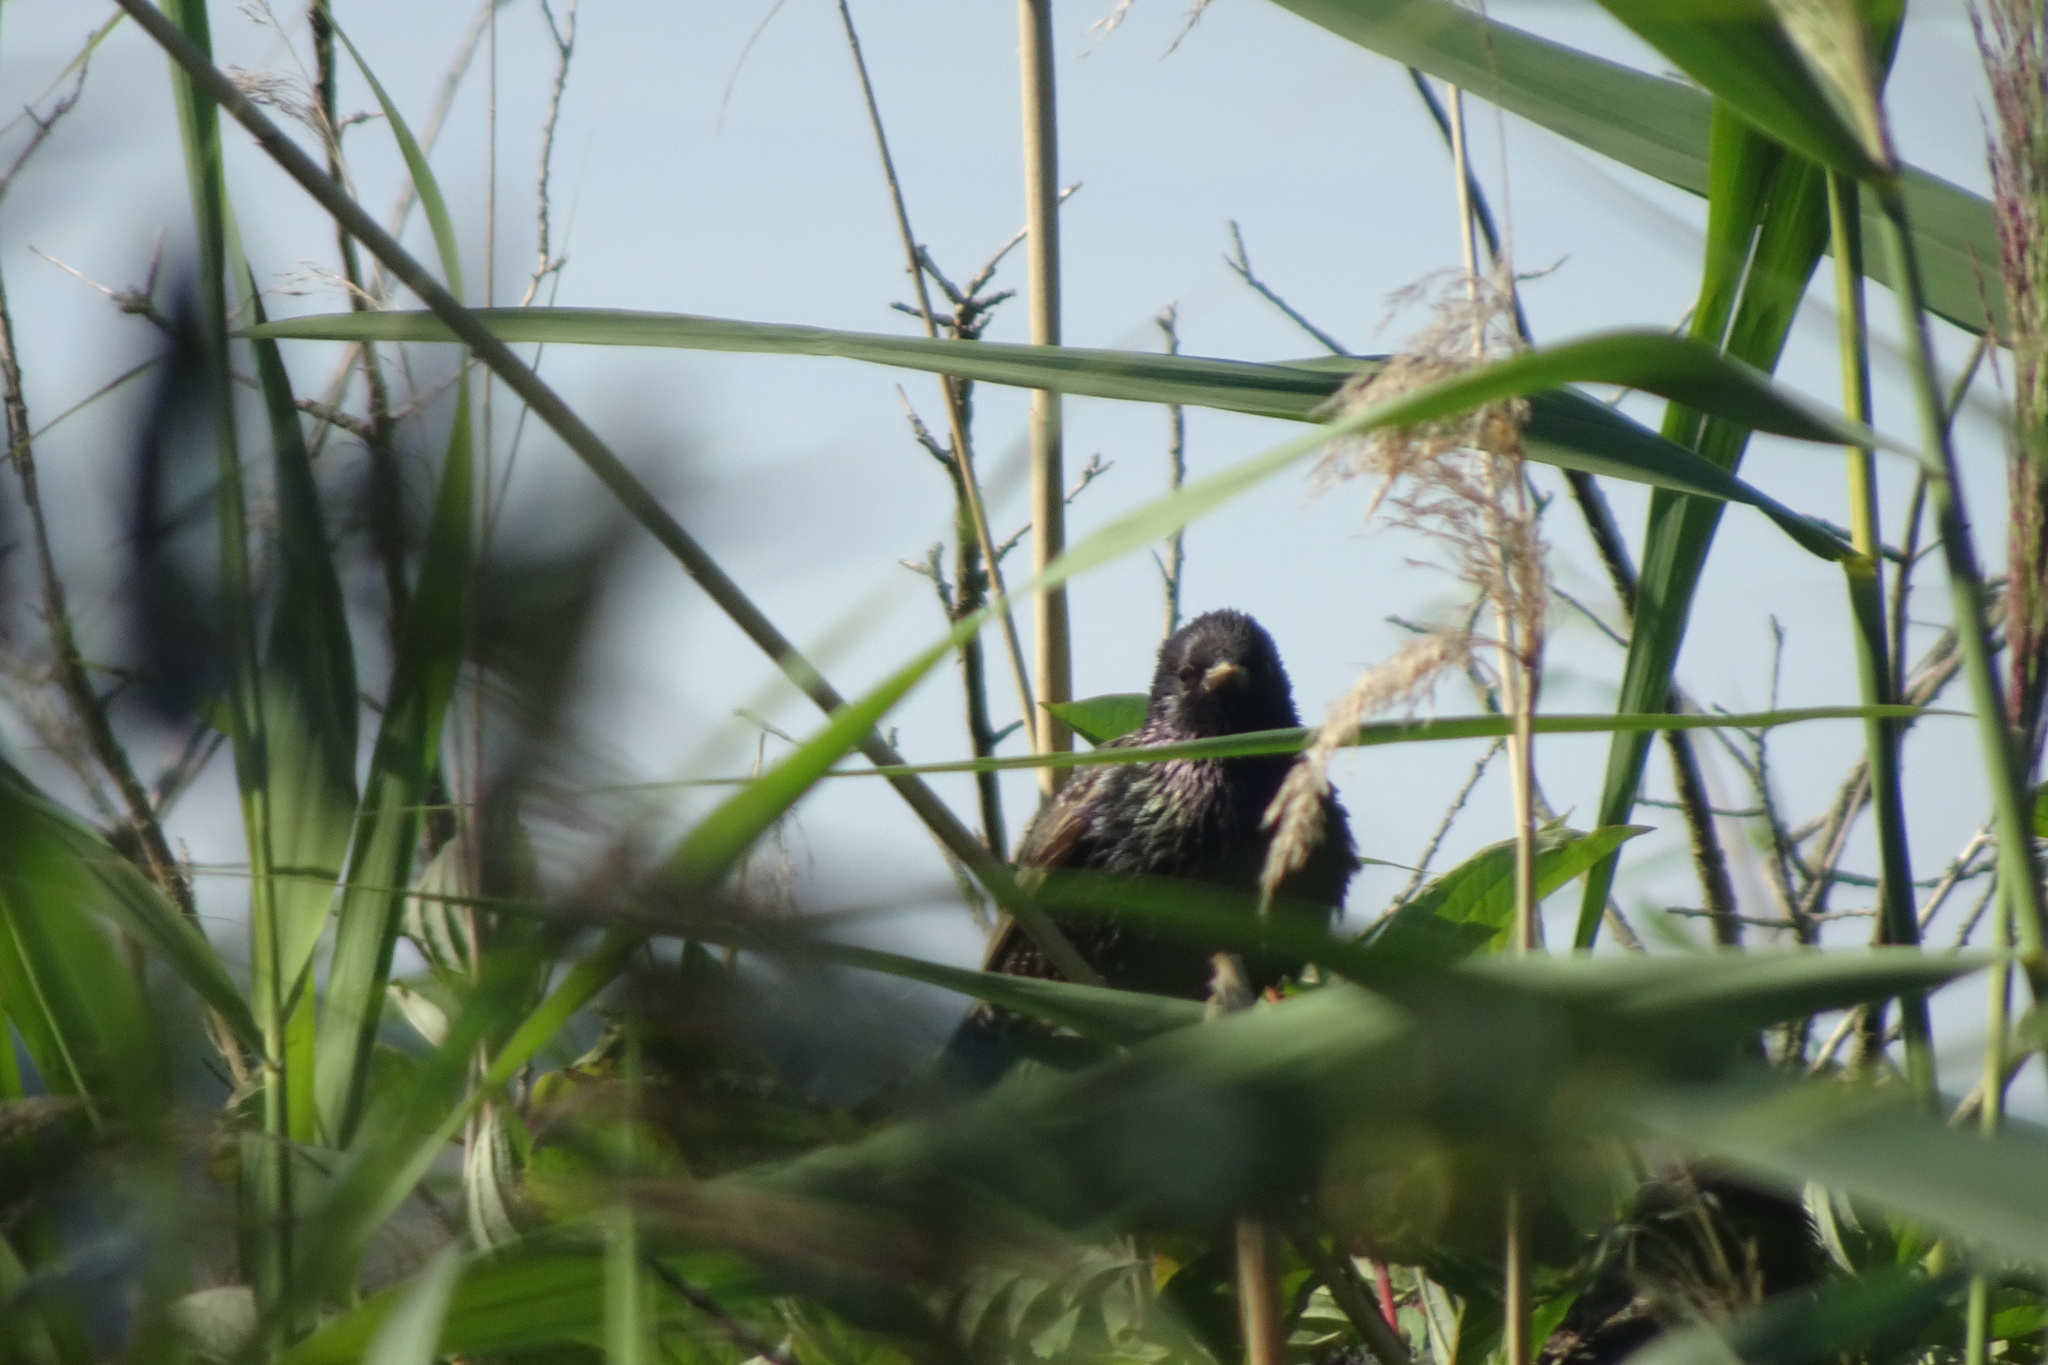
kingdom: Animalia
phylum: Chordata
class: Aves
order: Passeriformes
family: Sturnidae
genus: Sturnus
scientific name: Sturnus vulgaris
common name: Common starling
